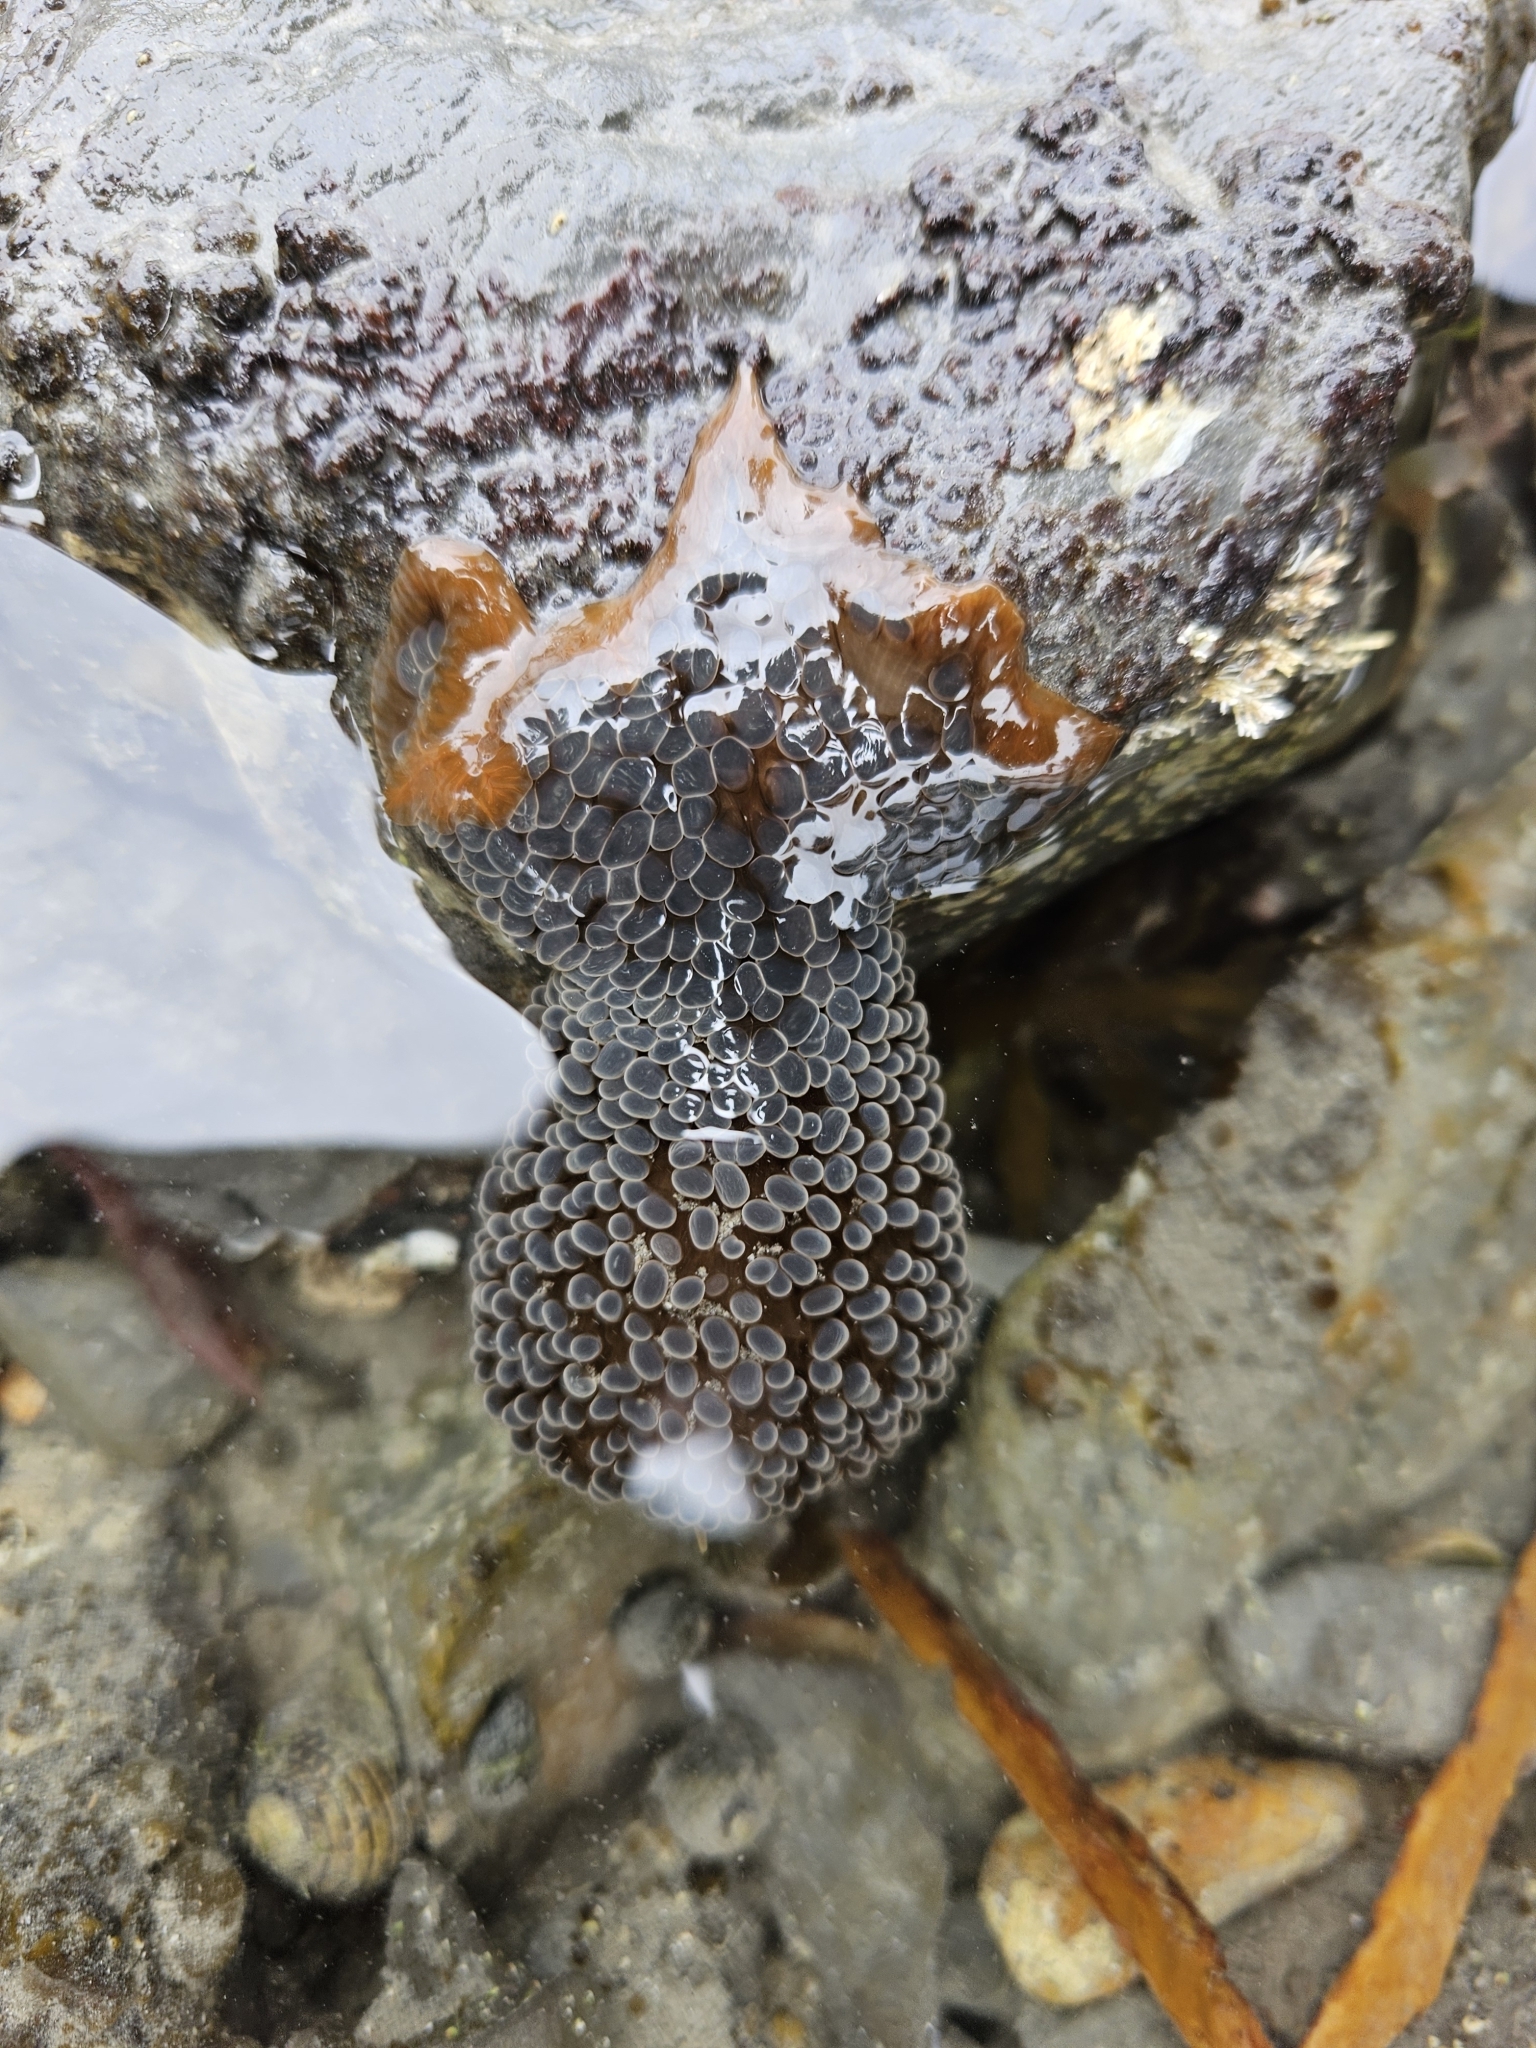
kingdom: Animalia
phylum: Cnidaria
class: Anthozoa
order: Actiniaria
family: Actiniidae
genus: Phlyctenactis
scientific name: Phlyctenactis tuberculosa
